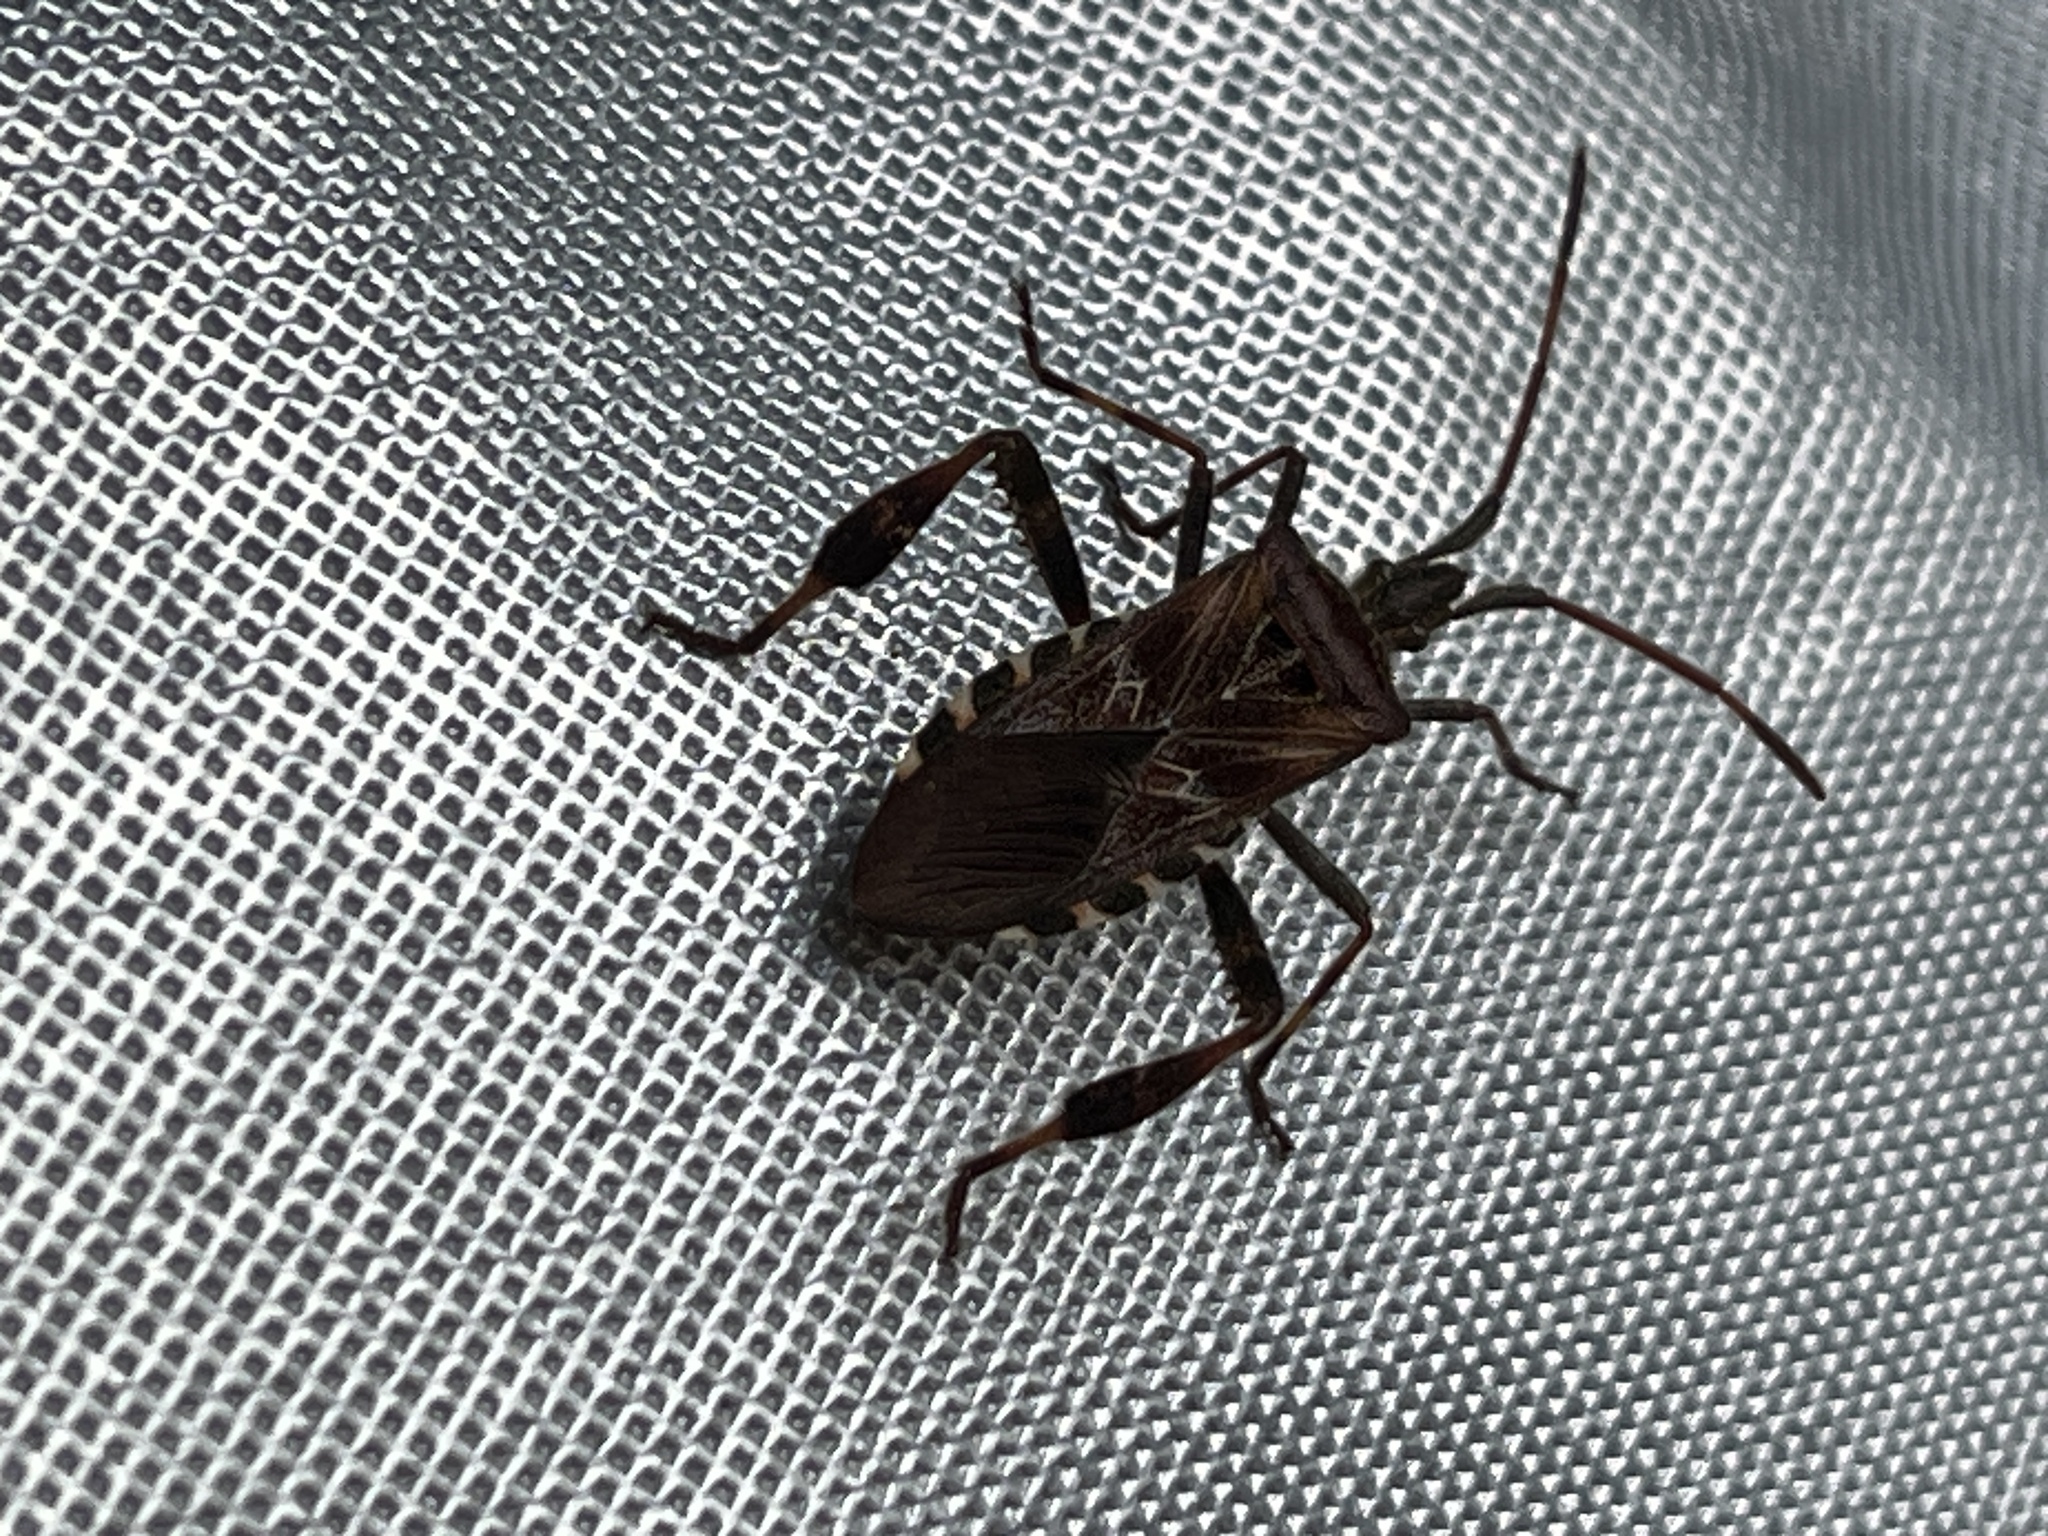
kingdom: Animalia
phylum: Arthropoda
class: Insecta
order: Hemiptera
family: Coreidae
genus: Leptoglossus
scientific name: Leptoglossus occidentalis
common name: Western conifer-seed bug
